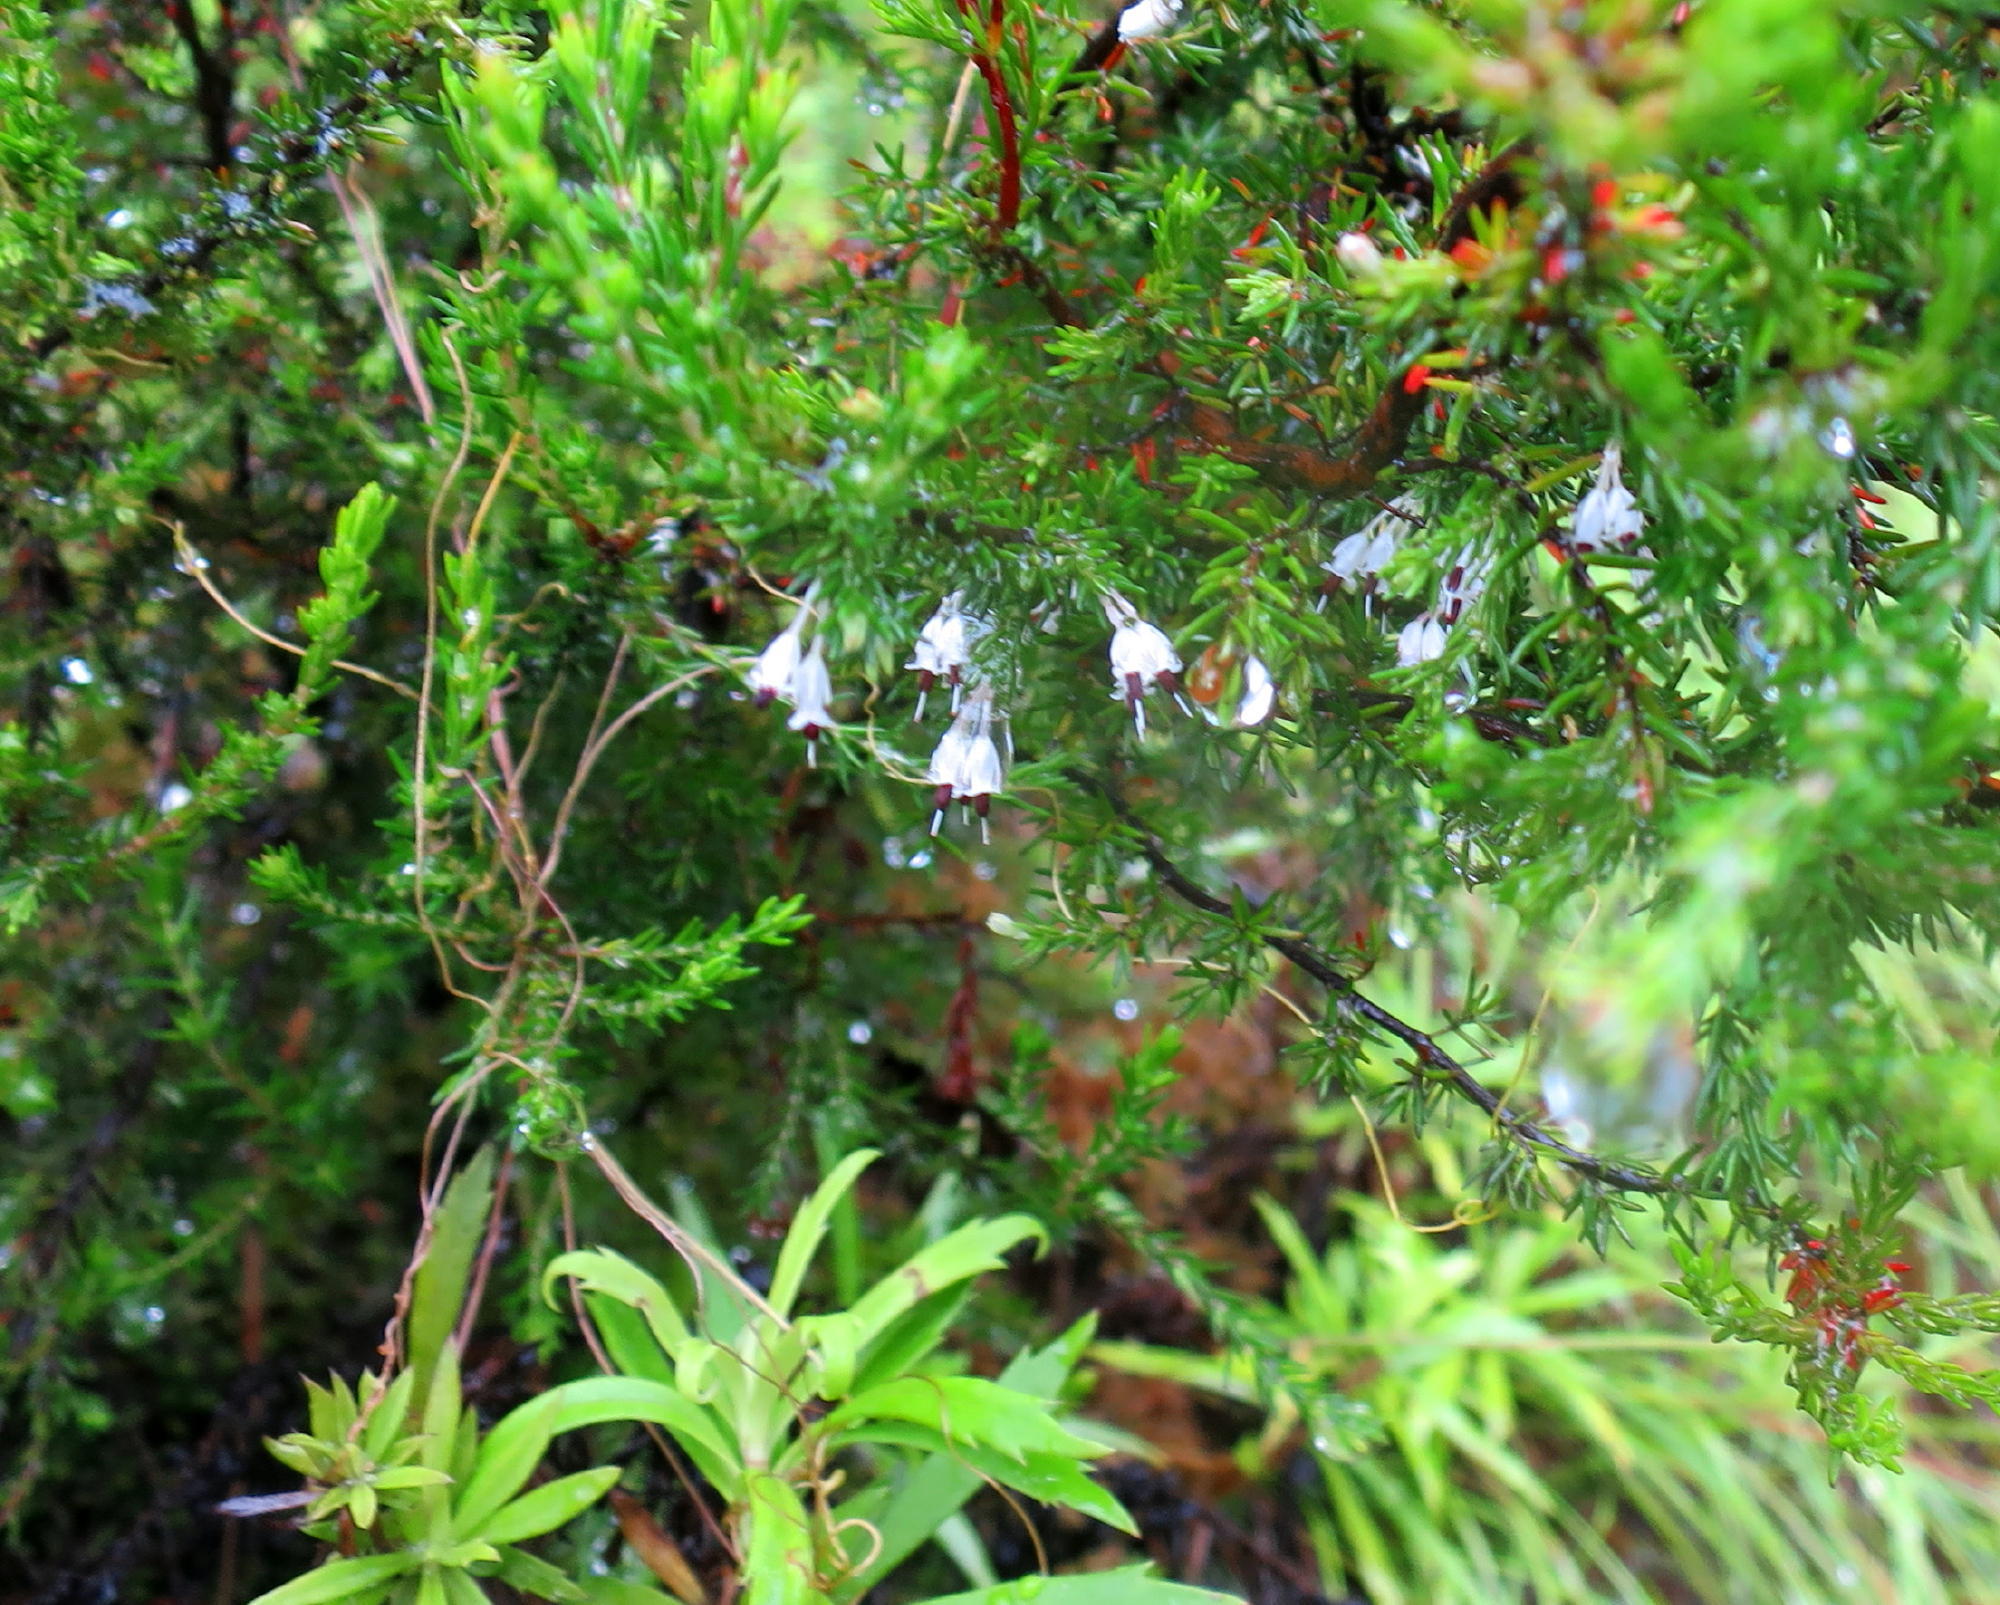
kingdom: Plantae
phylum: Tracheophyta
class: Magnoliopsida
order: Ericales
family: Ericaceae
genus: Erica
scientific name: Erica stylaris
